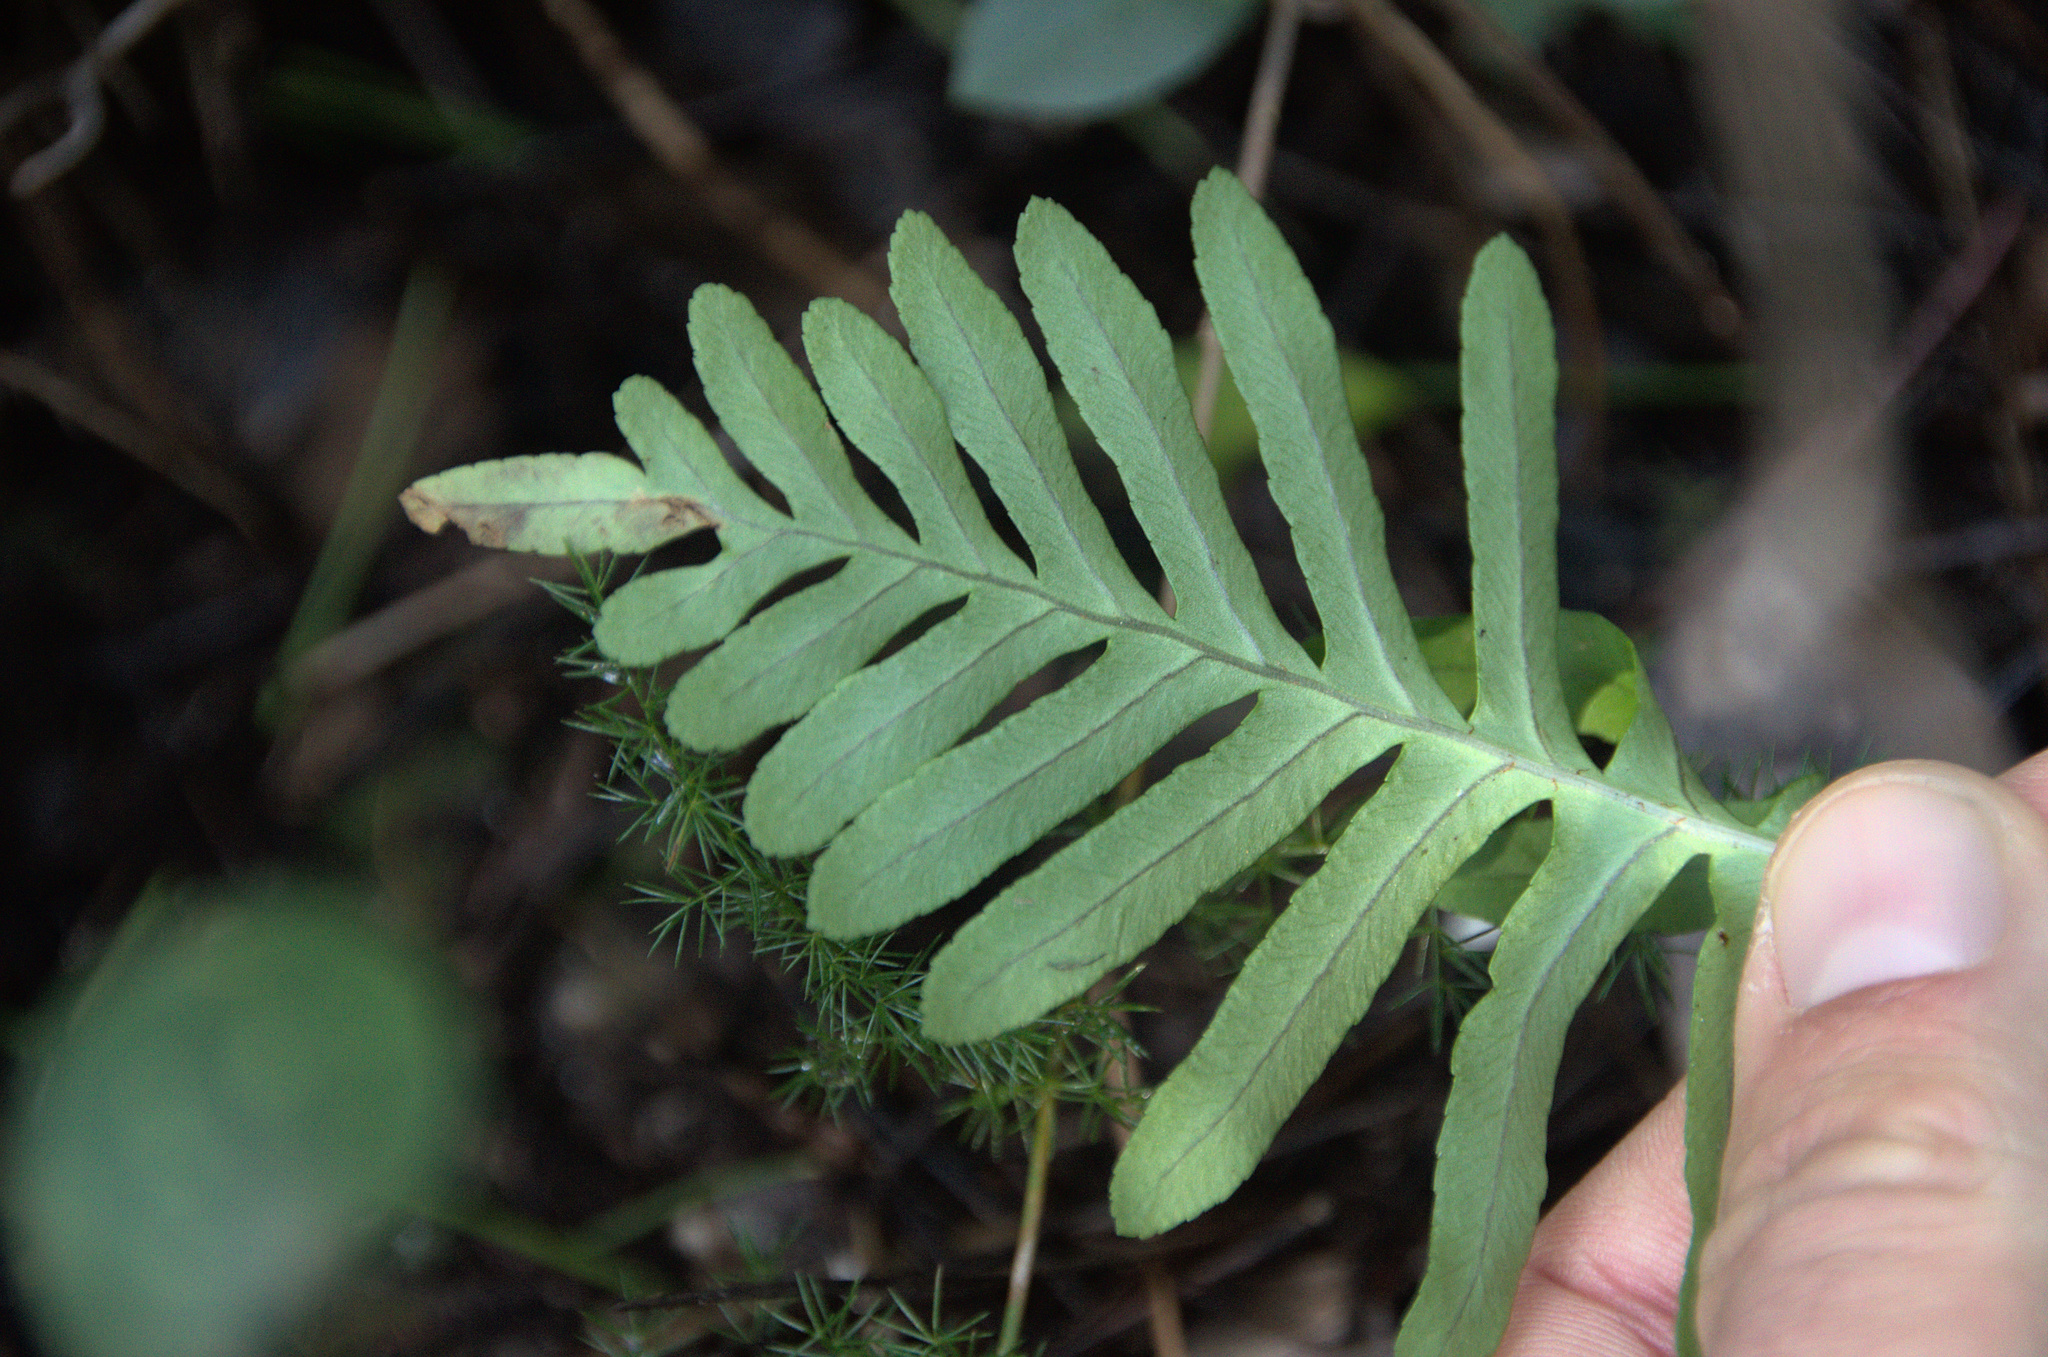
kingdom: Plantae
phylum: Tracheophyta
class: Polypodiopsida
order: Polypodiales
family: Polypodiaceae
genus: Polypodium
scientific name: Polypodium cambricum
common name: Southern polypody
